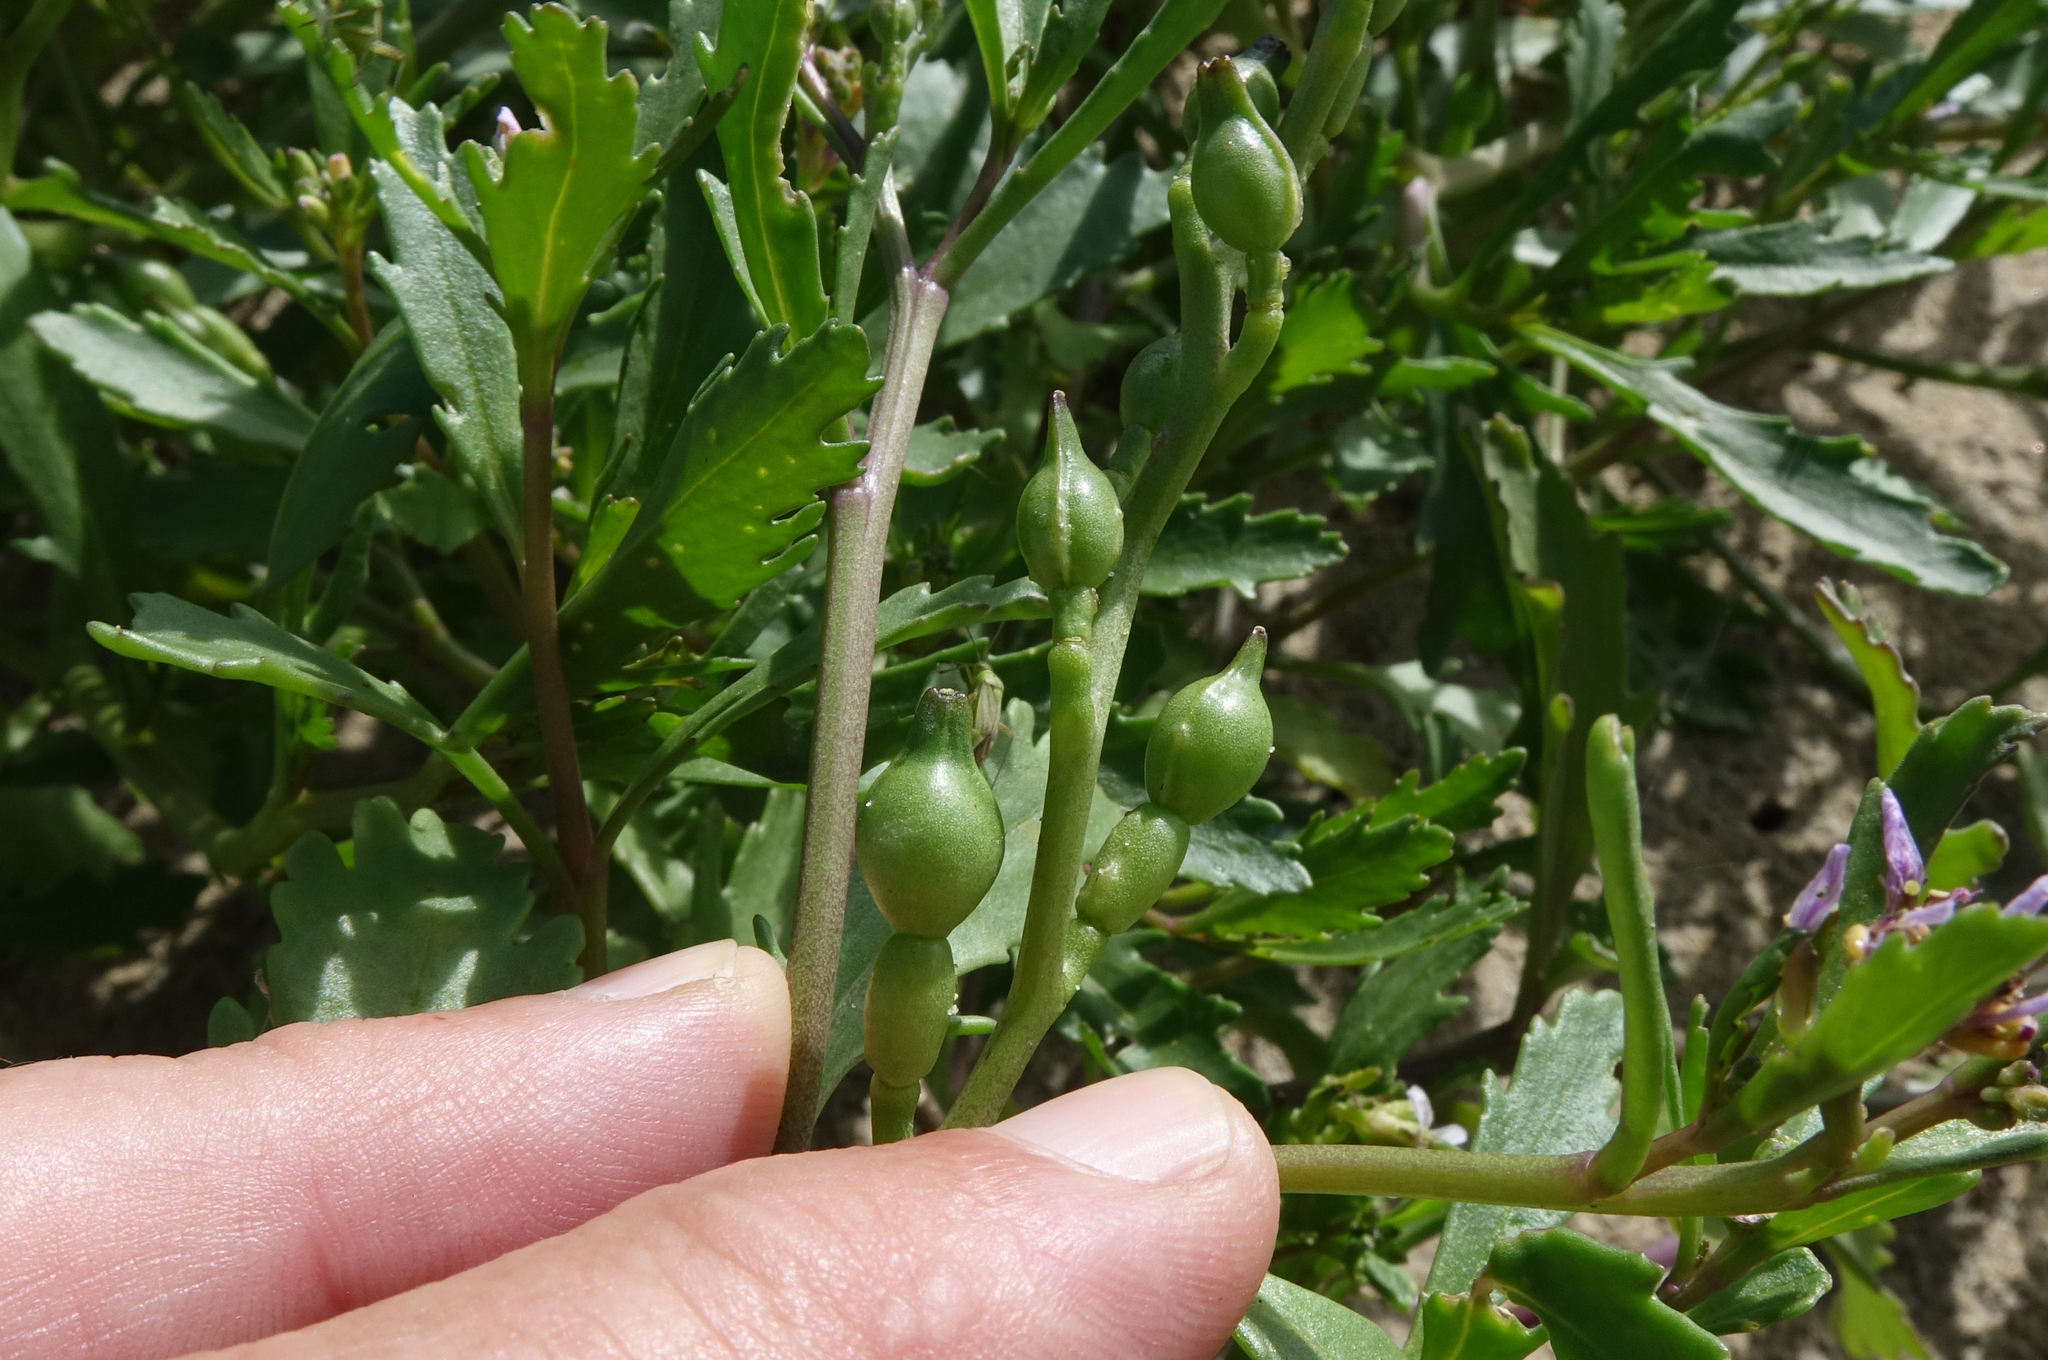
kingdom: Plantae
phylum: Tracheophyta
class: Magnoliopsida
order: Brassicales
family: Brassicaceae
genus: Cakile
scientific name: Cakile edentula
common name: American sea rocket
